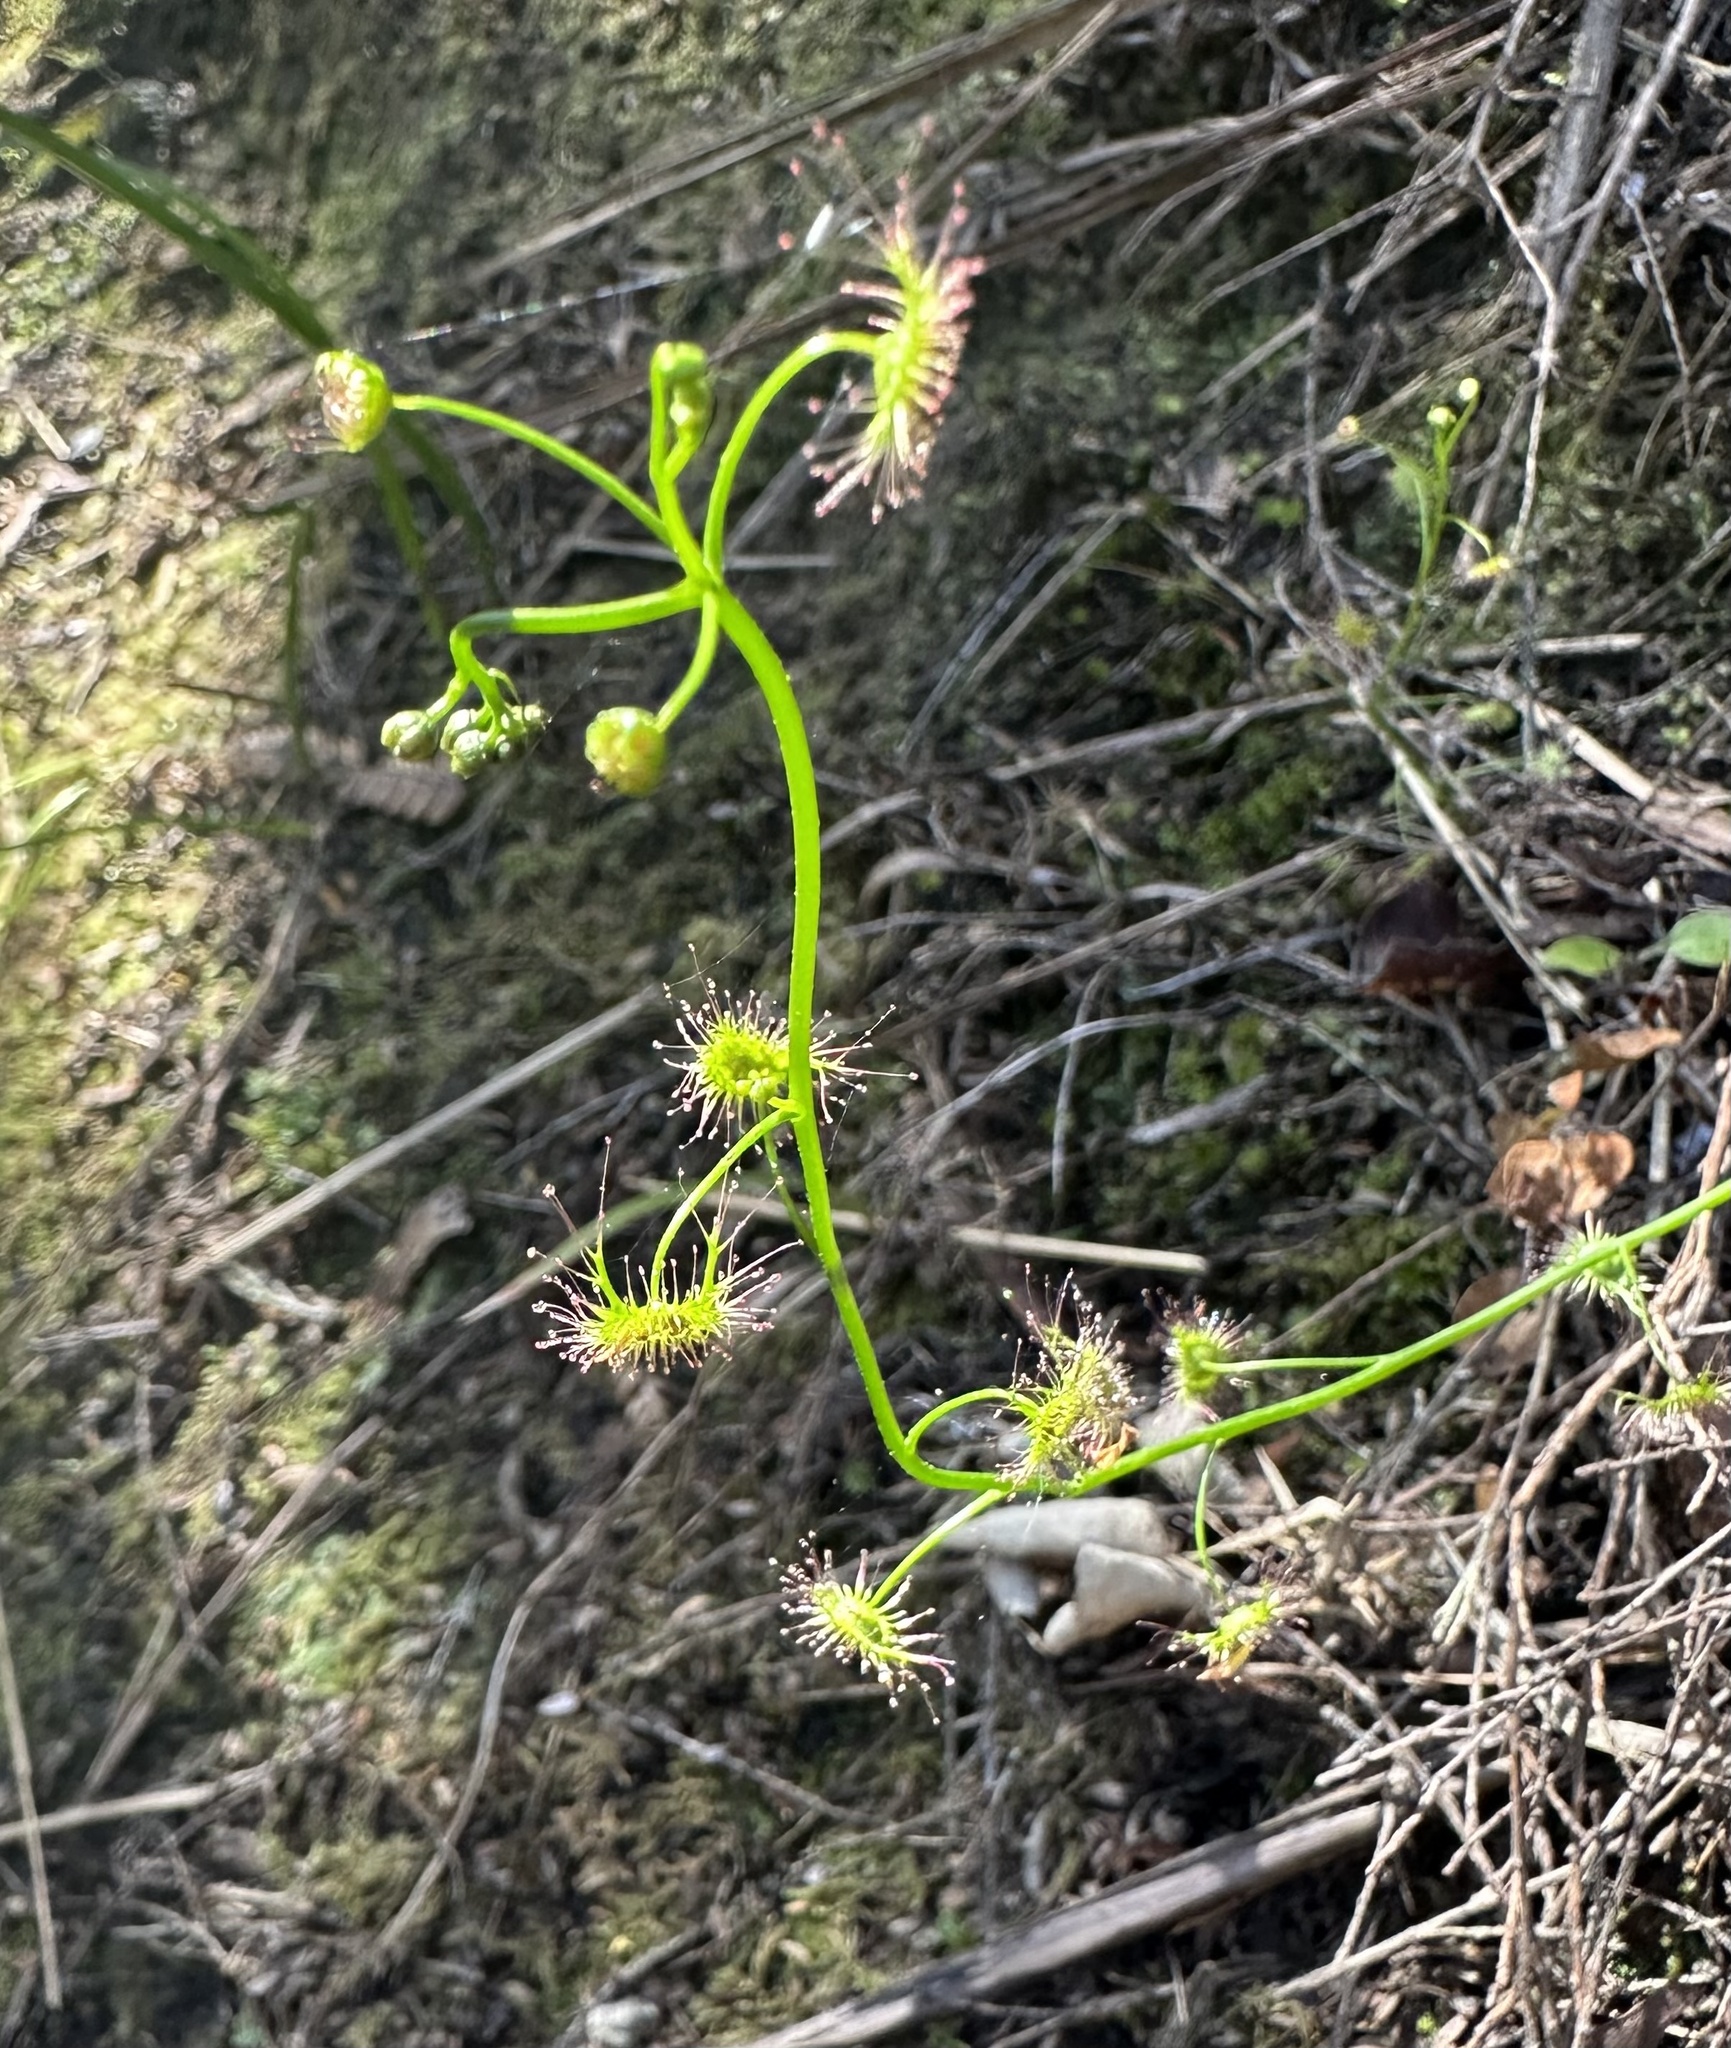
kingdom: Plantae
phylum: Tracheophyta
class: Magnoliopsida
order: Caryophyllales
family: Droseraceae
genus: Drosera
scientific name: Drosera peltata
